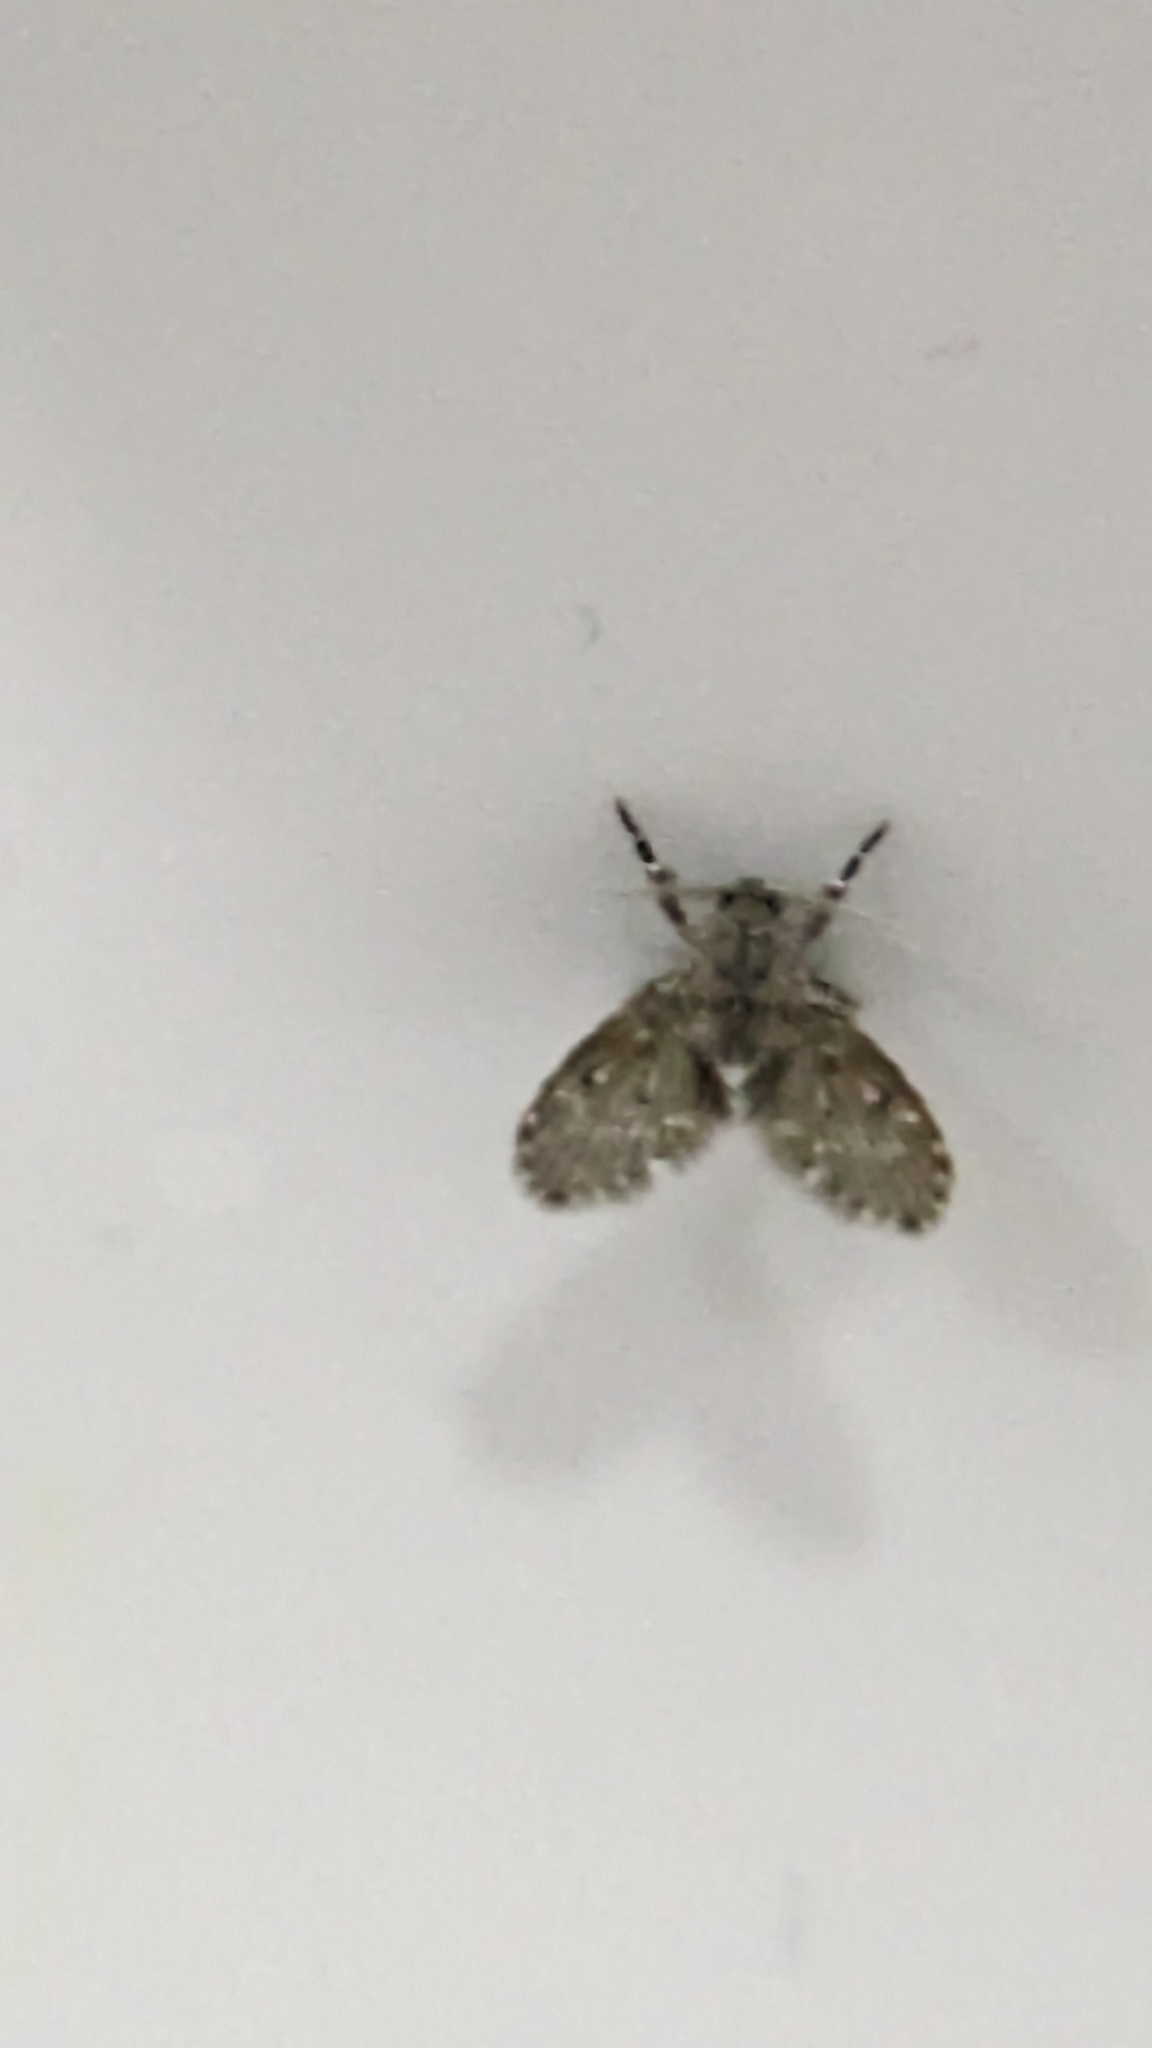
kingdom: Animalia
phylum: Arthropoda
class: Insecta
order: Diptera
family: Psychodidae
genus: Clogmia
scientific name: Clogmia albipunctatus
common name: White-spotted moth fly
